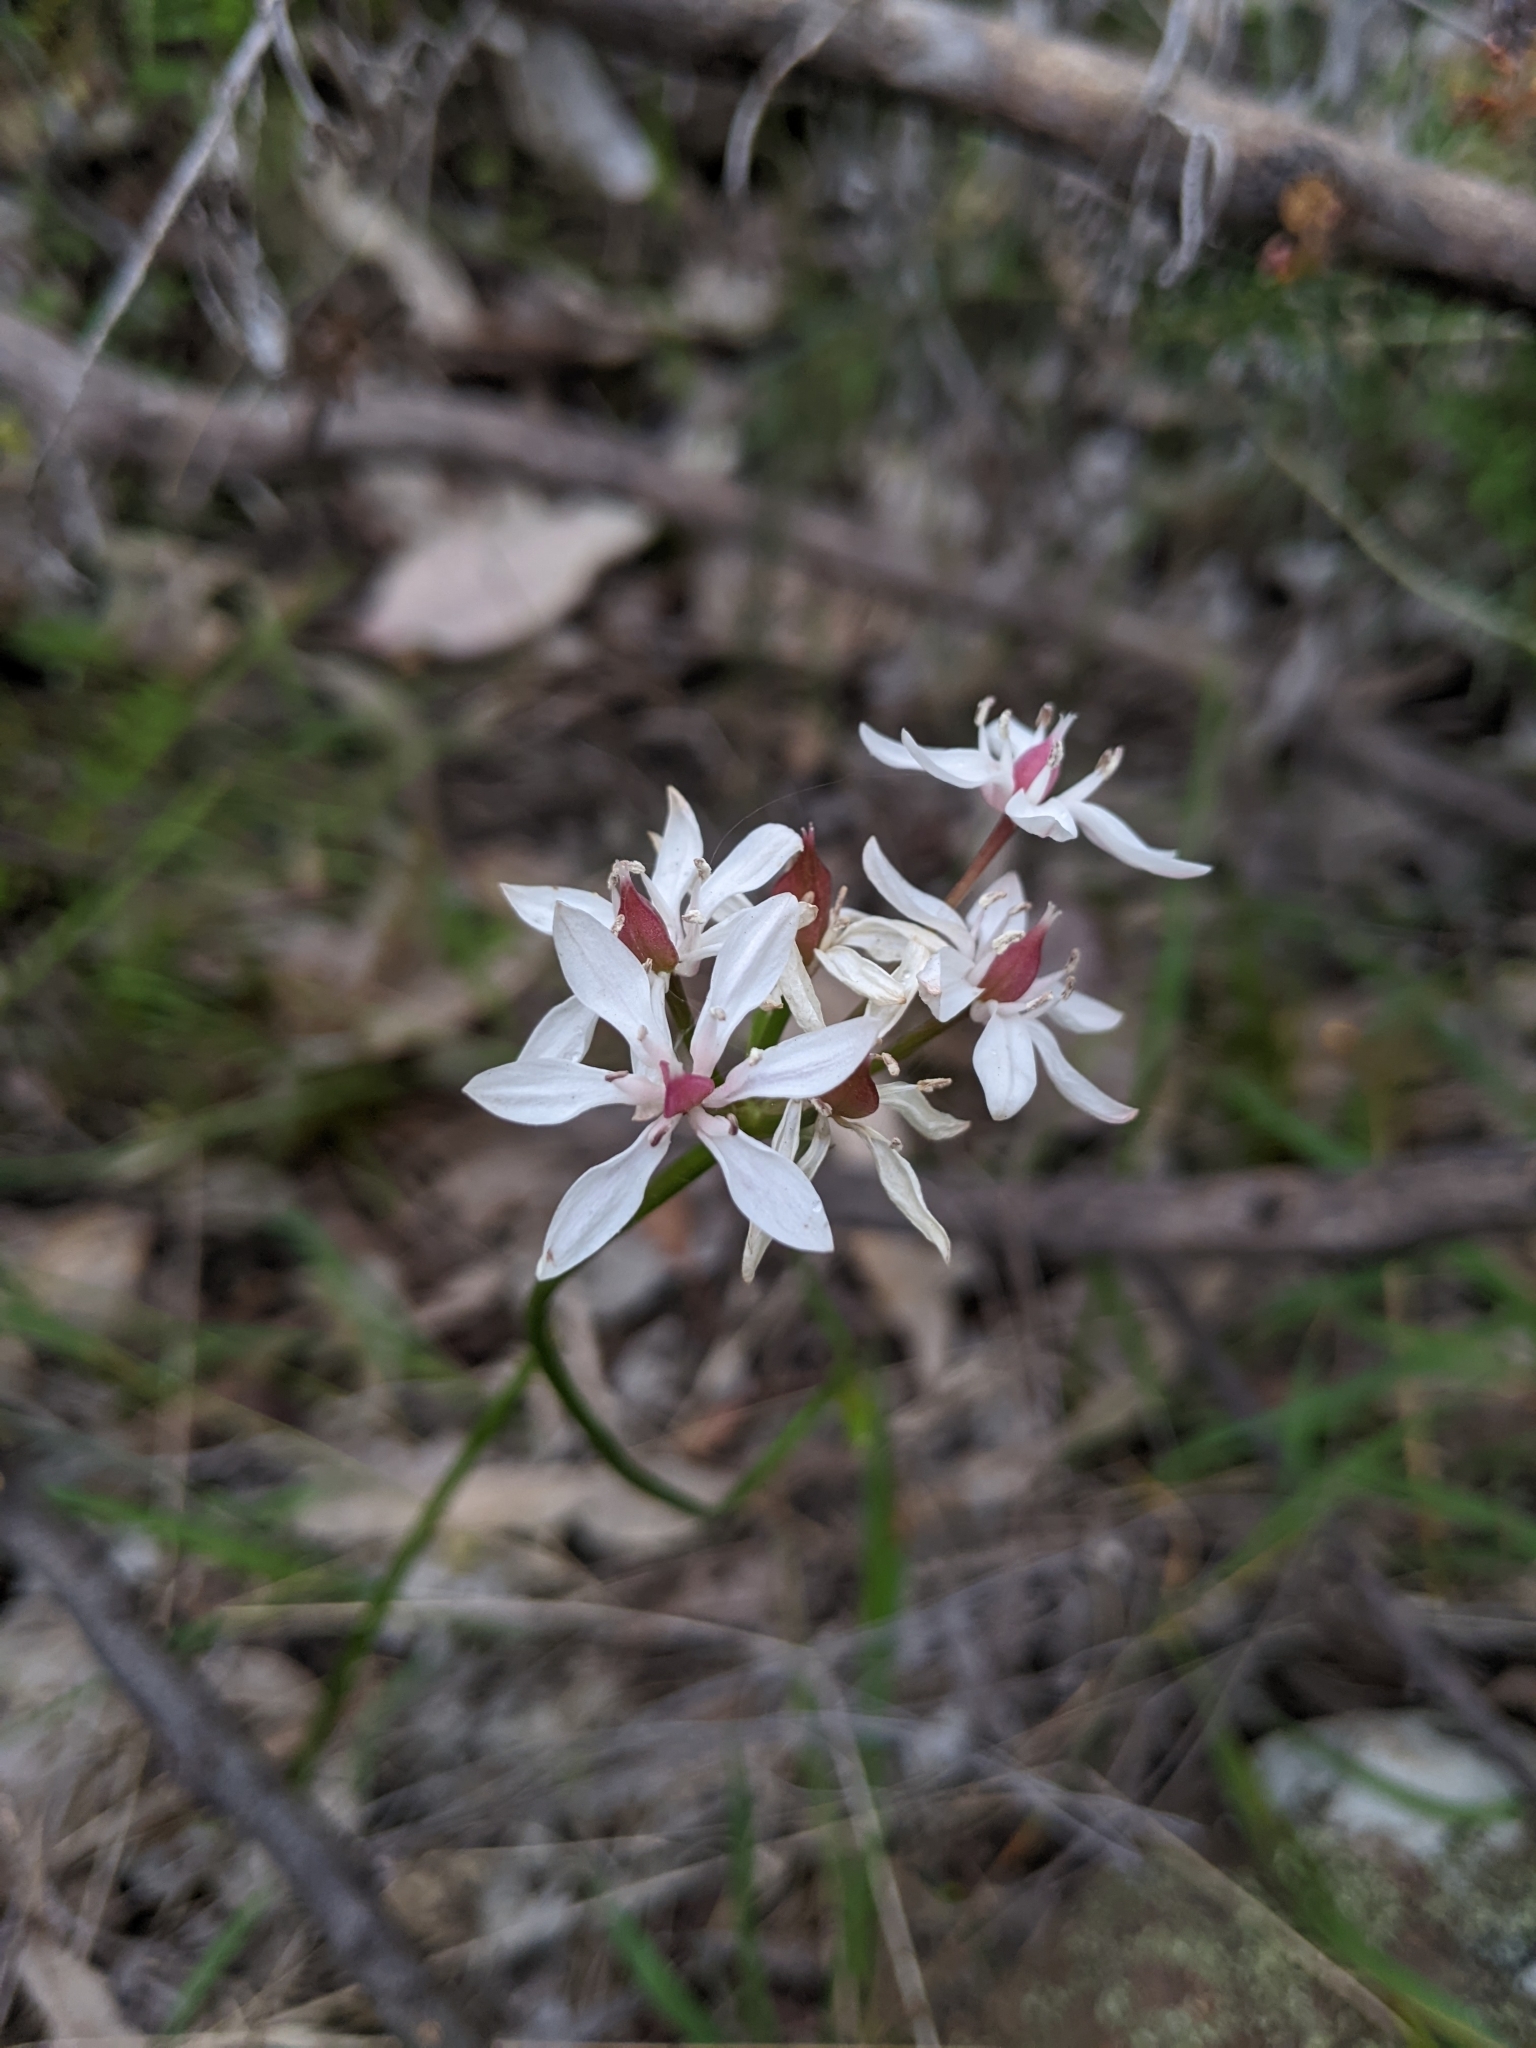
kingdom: Plantae
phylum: Tracheophyta
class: Liliopsida
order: Liliales
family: Colchicaceae
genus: Burchardia
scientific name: Burchardia umbellata
